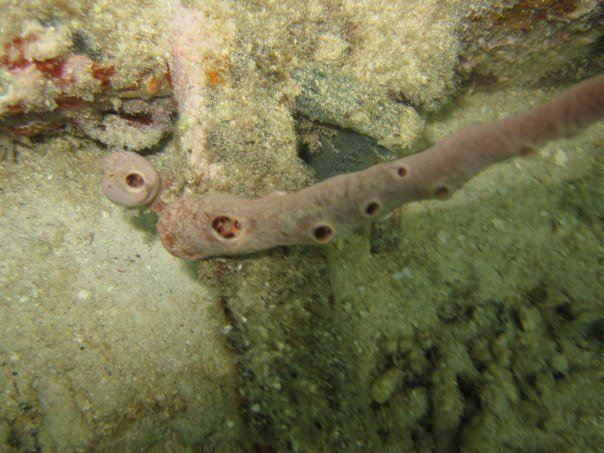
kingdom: Animalia
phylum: Porifera
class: Demospongiae
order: Poecilosclerida
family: Desmacididae
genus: Desmapsamma
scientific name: Desmapsamma anchorata
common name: Lumpy overgrowing sponge
